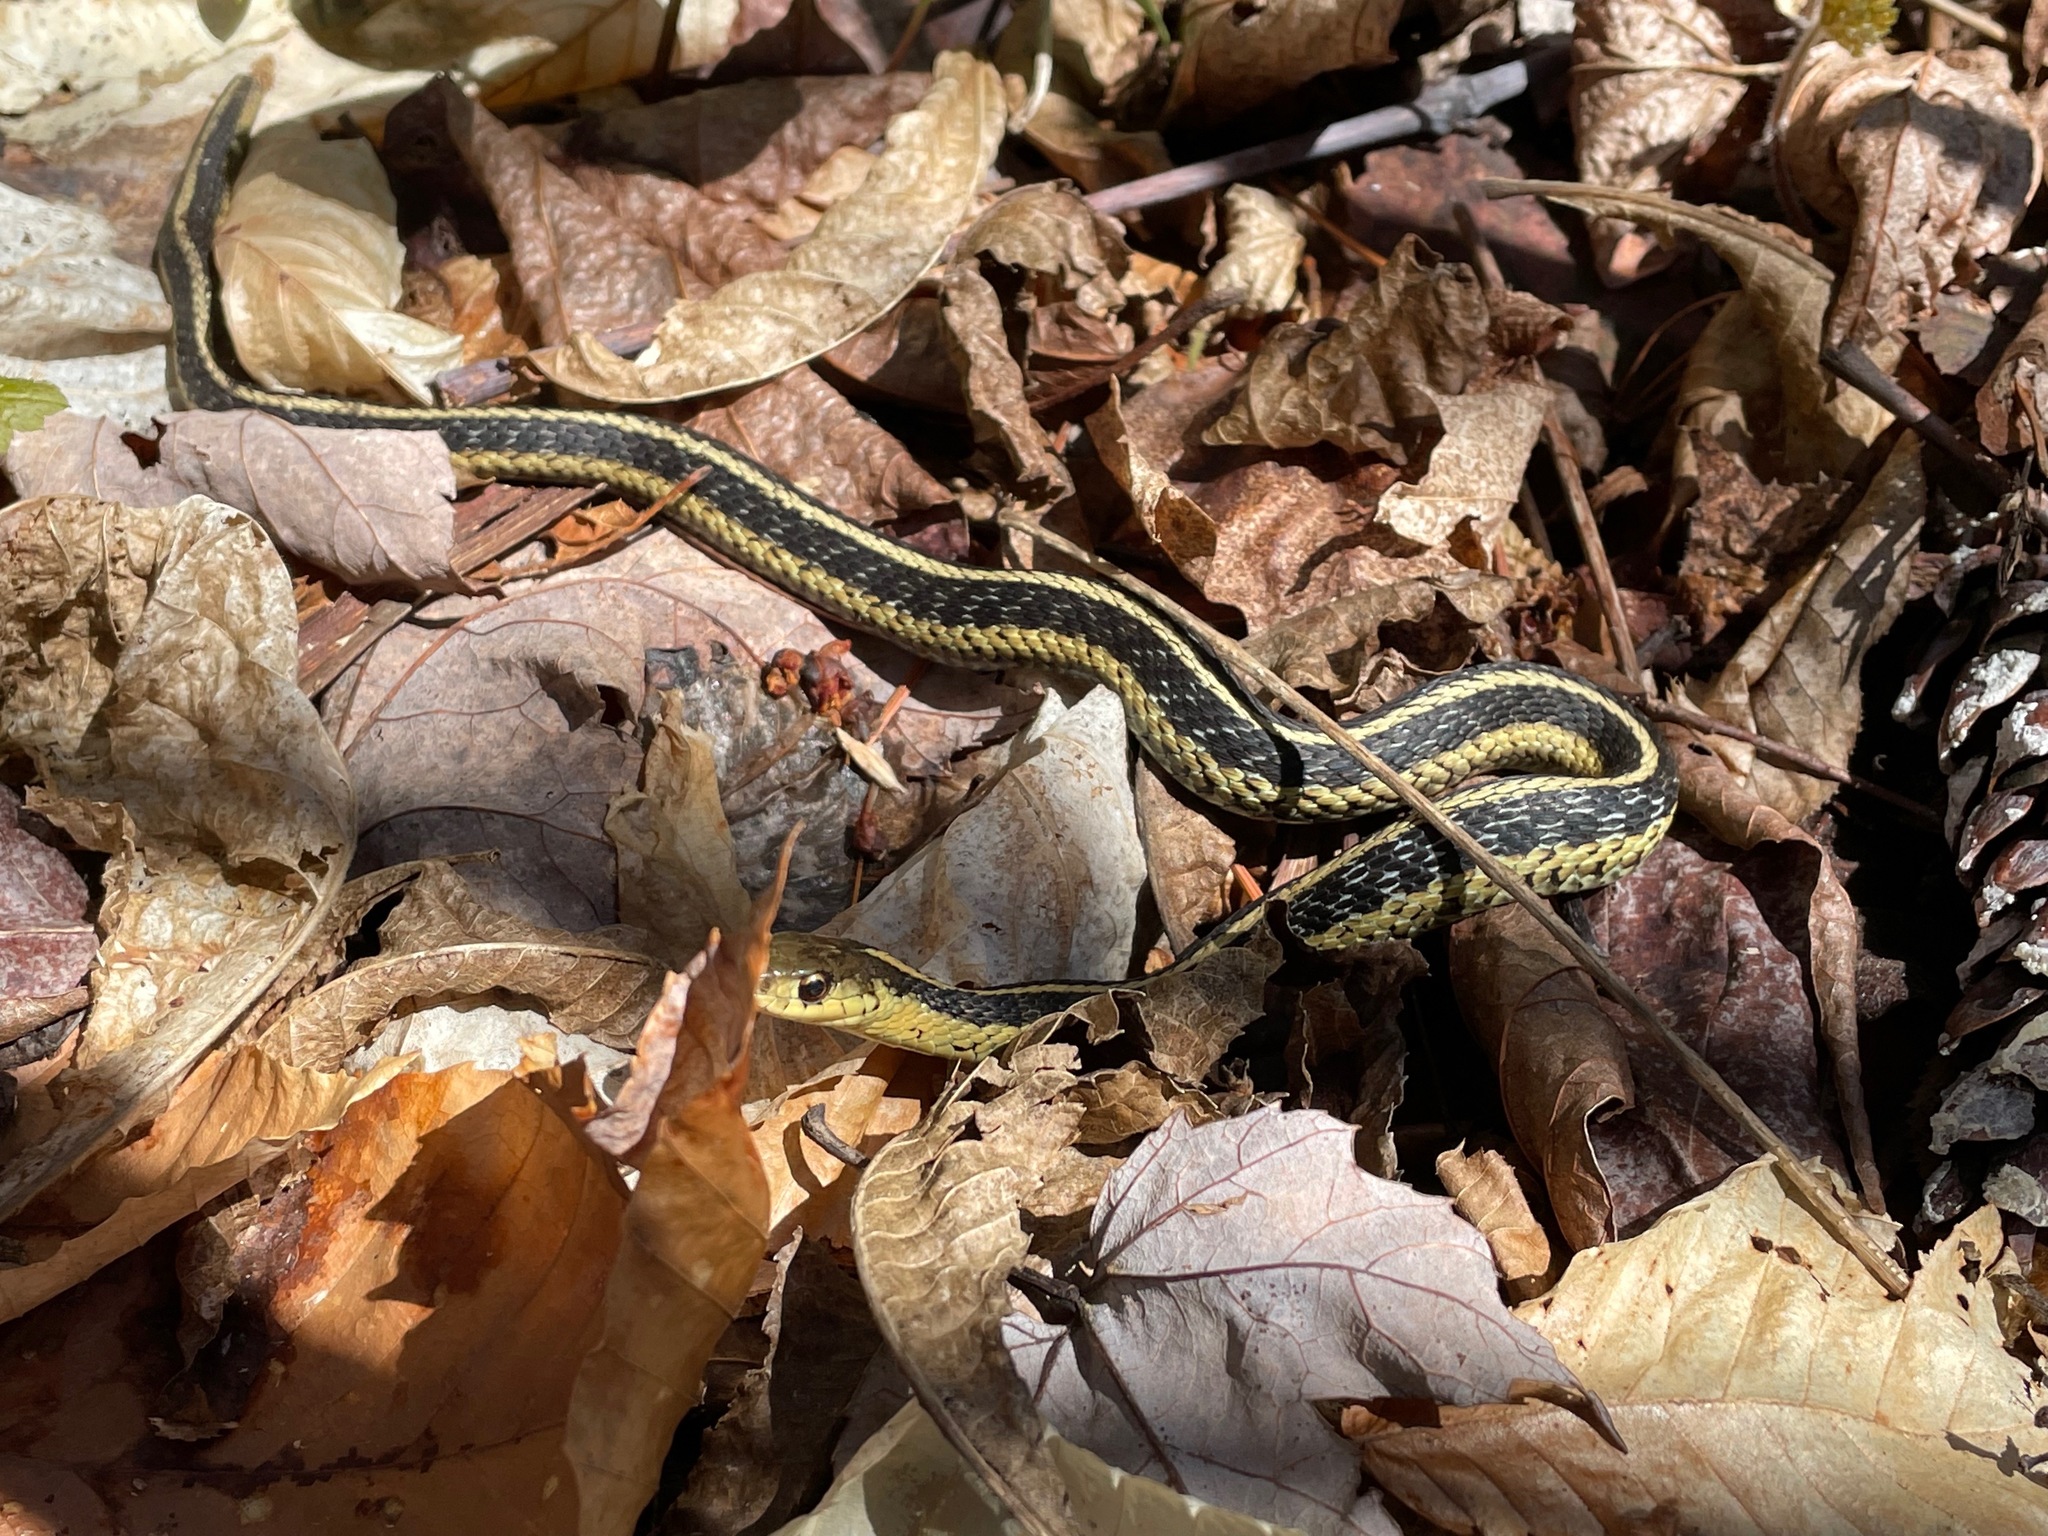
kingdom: Animalia
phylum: Chordata
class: Squamata
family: Colubridae
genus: Thamnophis
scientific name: Thamnophis sirtalis
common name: Common garter snake
